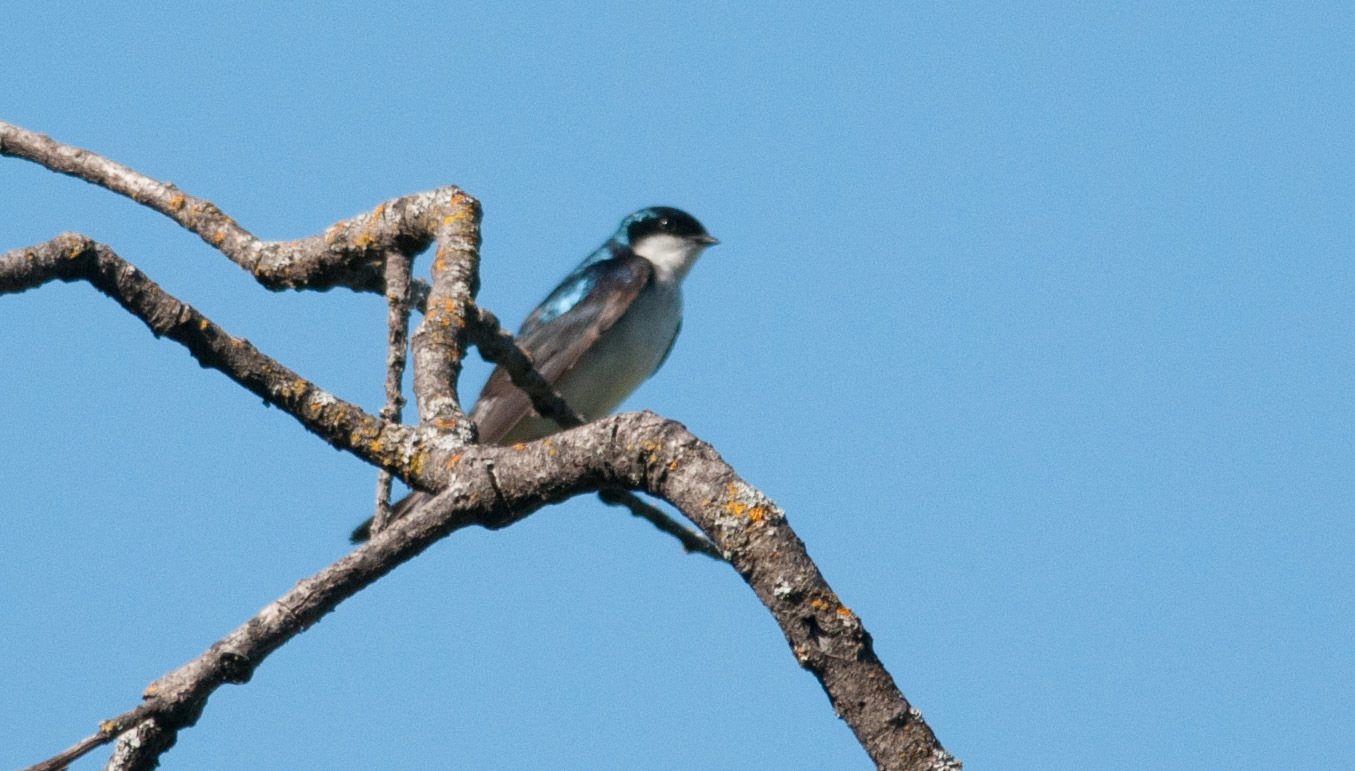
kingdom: Animalia
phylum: Chordata
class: Aves
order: Passeriformes
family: Hirundinidae
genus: Tachycineta
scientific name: Tachycineta bicolor
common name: Tree swallow
